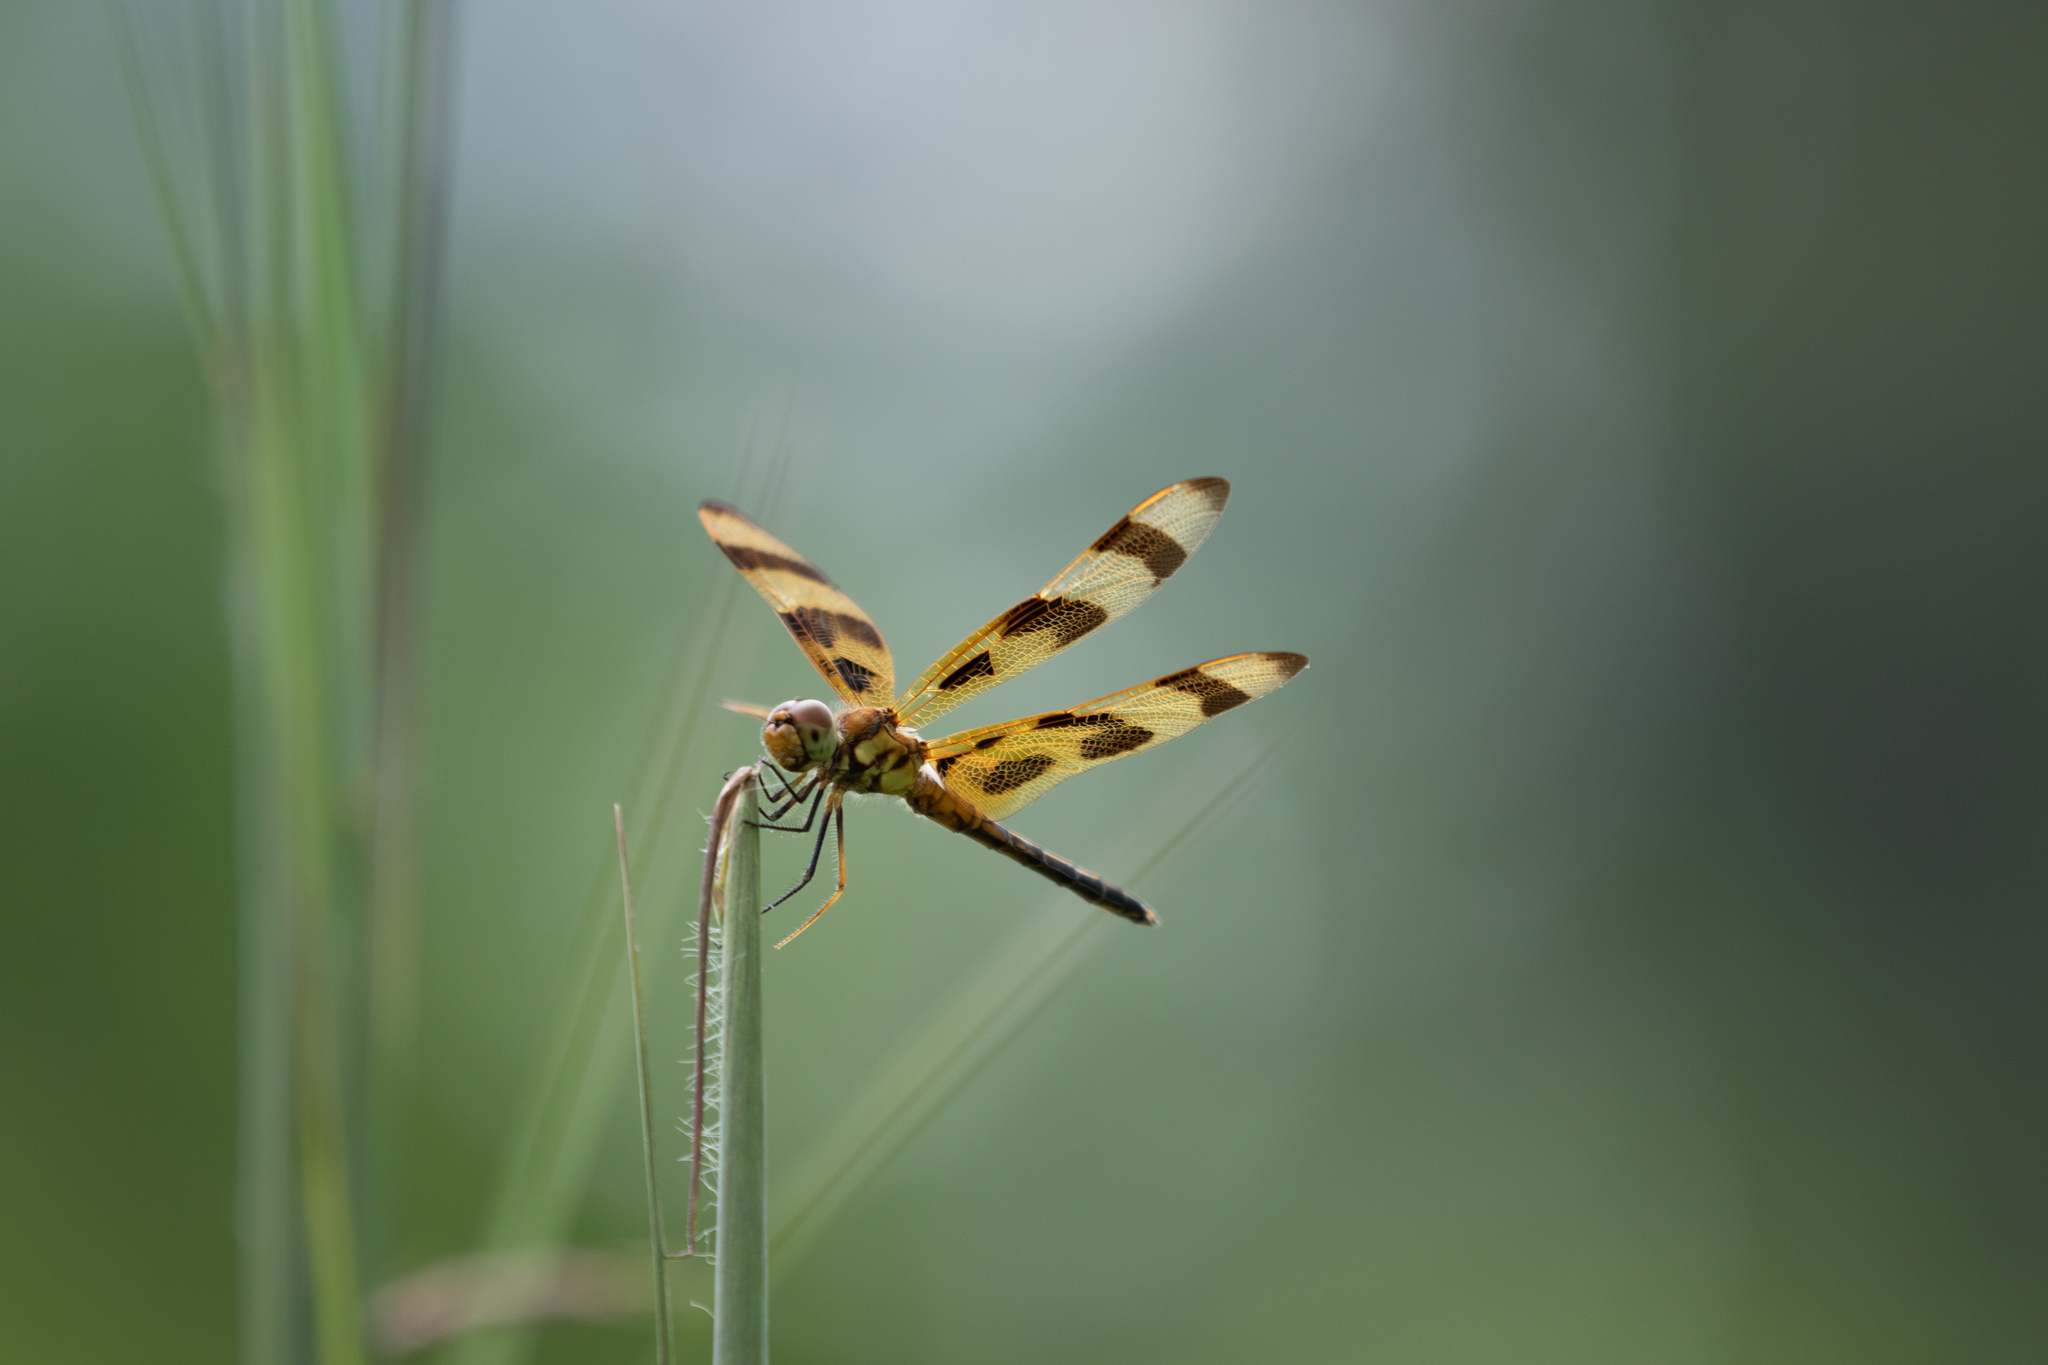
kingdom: Animalia
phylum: Arthropoda
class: Insecta
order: Odonata
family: Libellulidae
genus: Celithemis
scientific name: Celithemis eponina
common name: Halloween pennant
